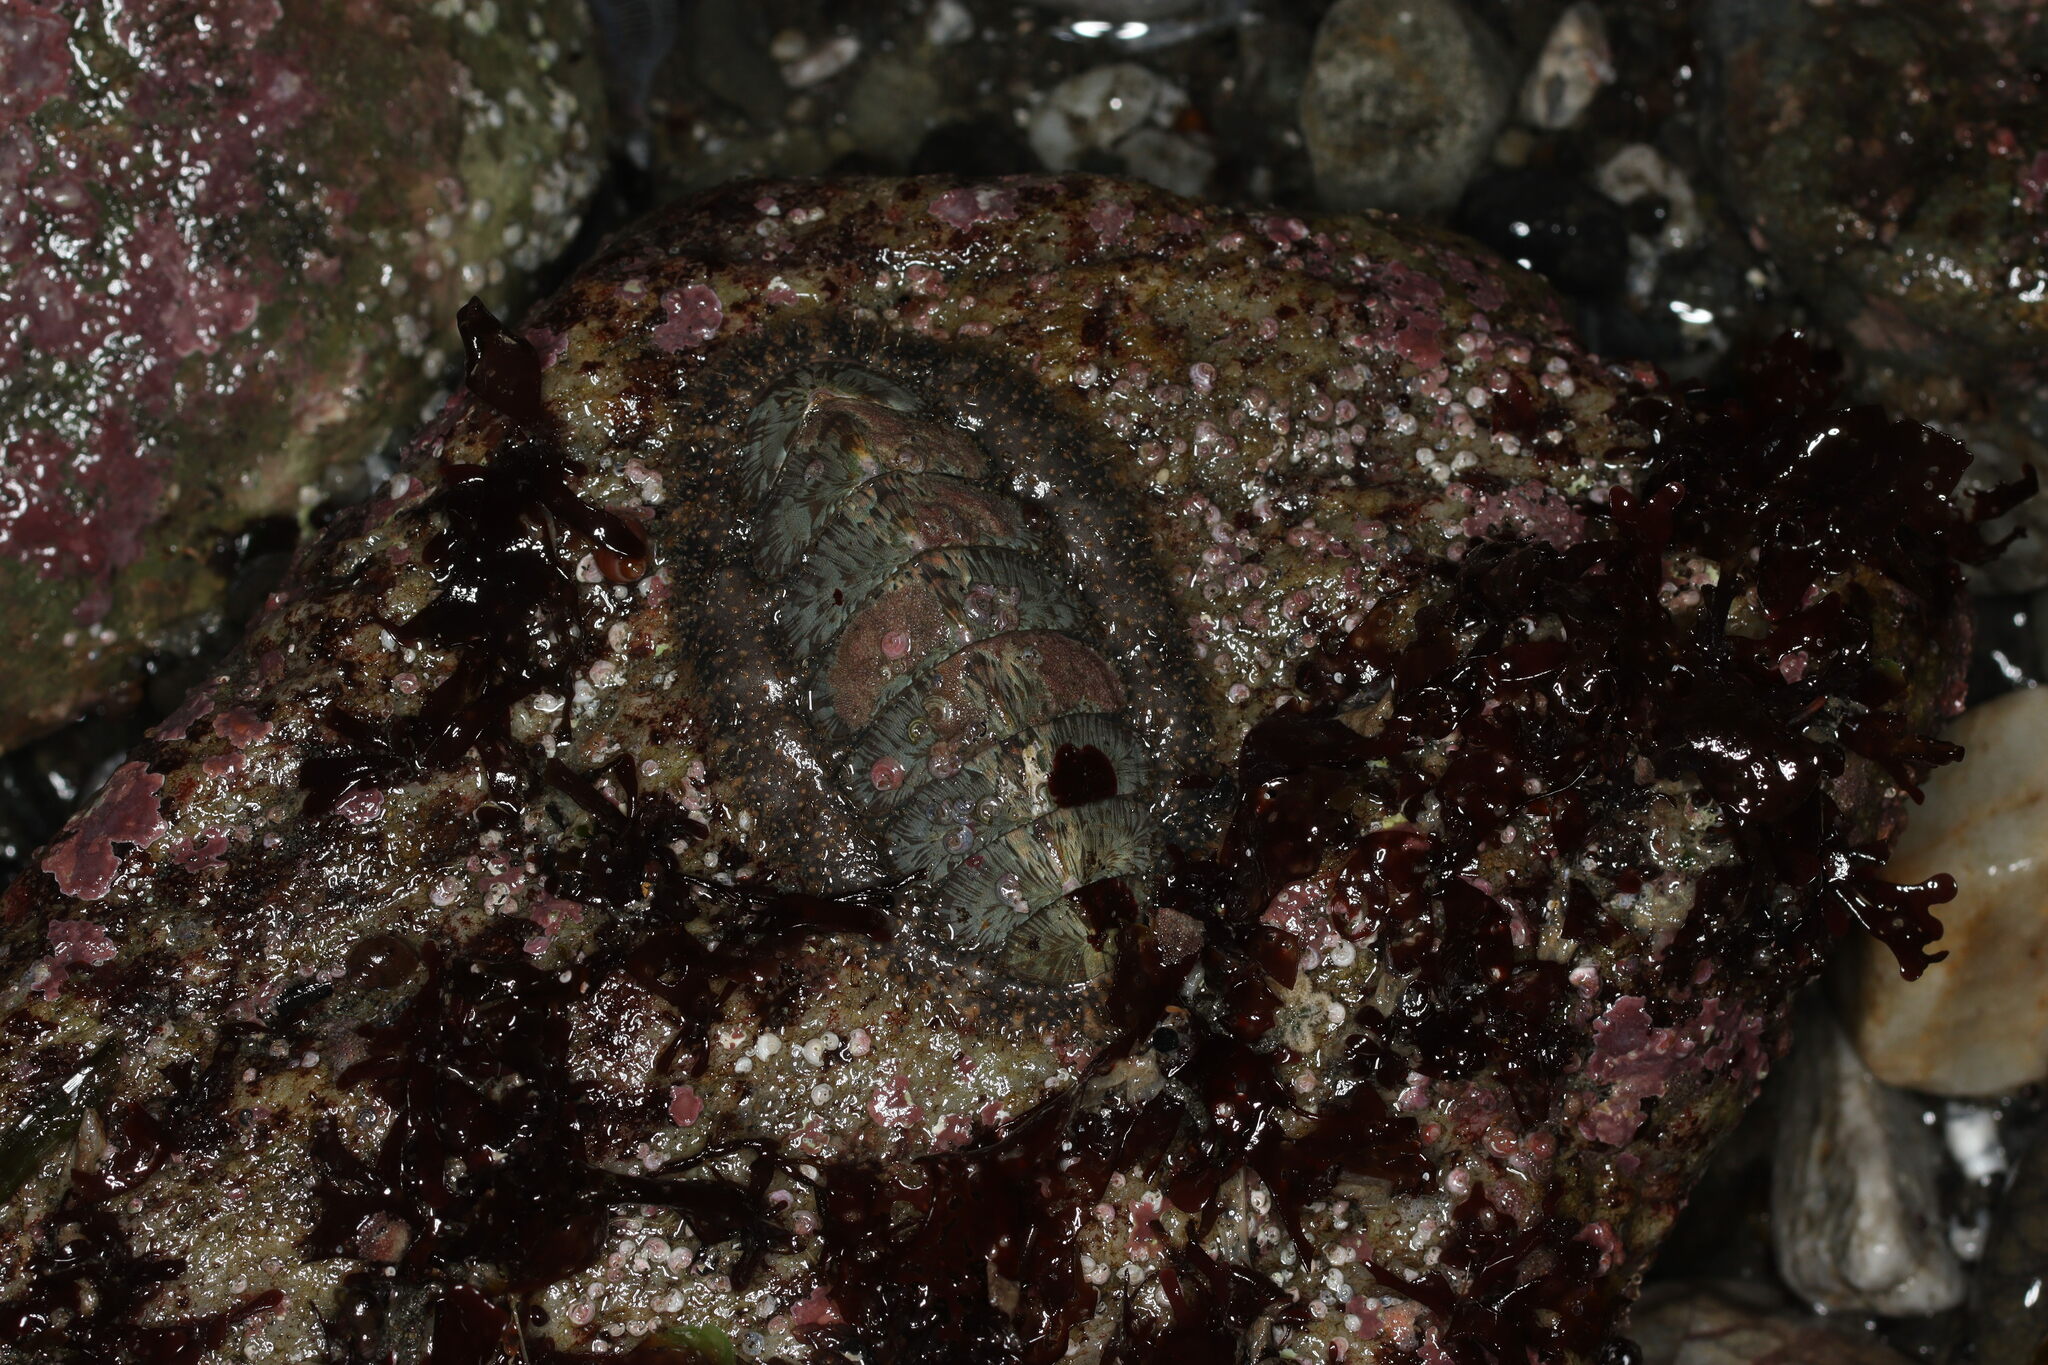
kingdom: Animalia
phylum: Mollusca
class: Polyplacophora
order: Chitonida
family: Mopaliidae
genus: Mopalia
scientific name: Mopalia lignosa
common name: Woody chiton
